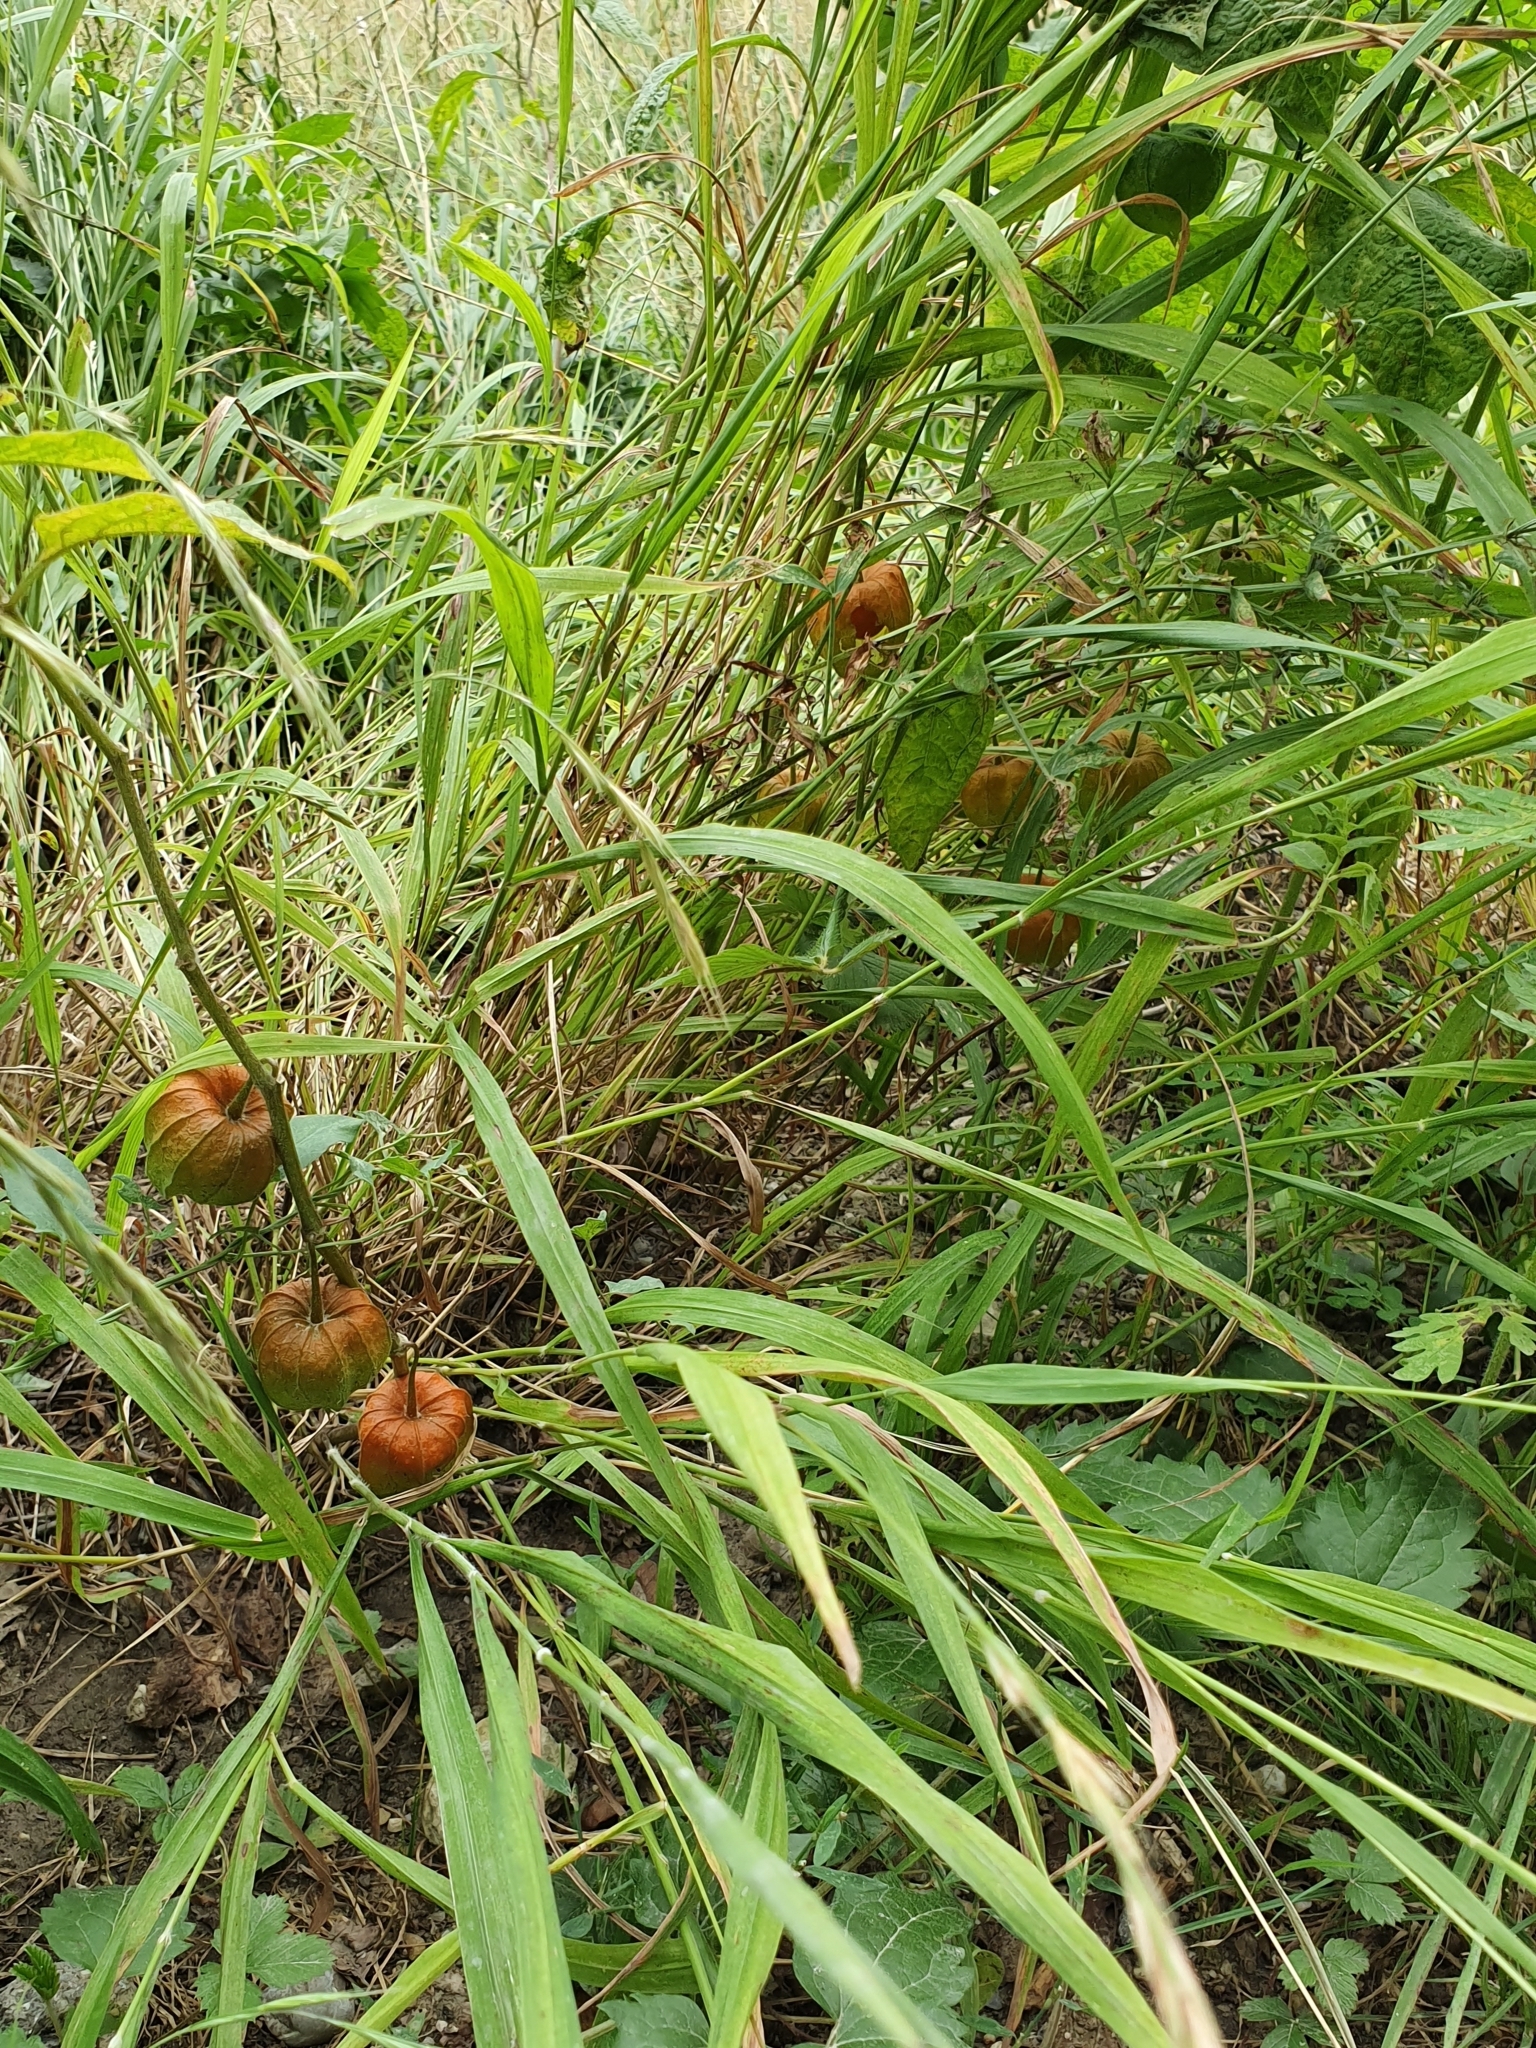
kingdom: Plantae
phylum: Tracheophyta
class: Magnoliopsida
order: Solanales
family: Solanaceae
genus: Alkekengi
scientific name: Alkekengi officinarum
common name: Japanese-lantern
